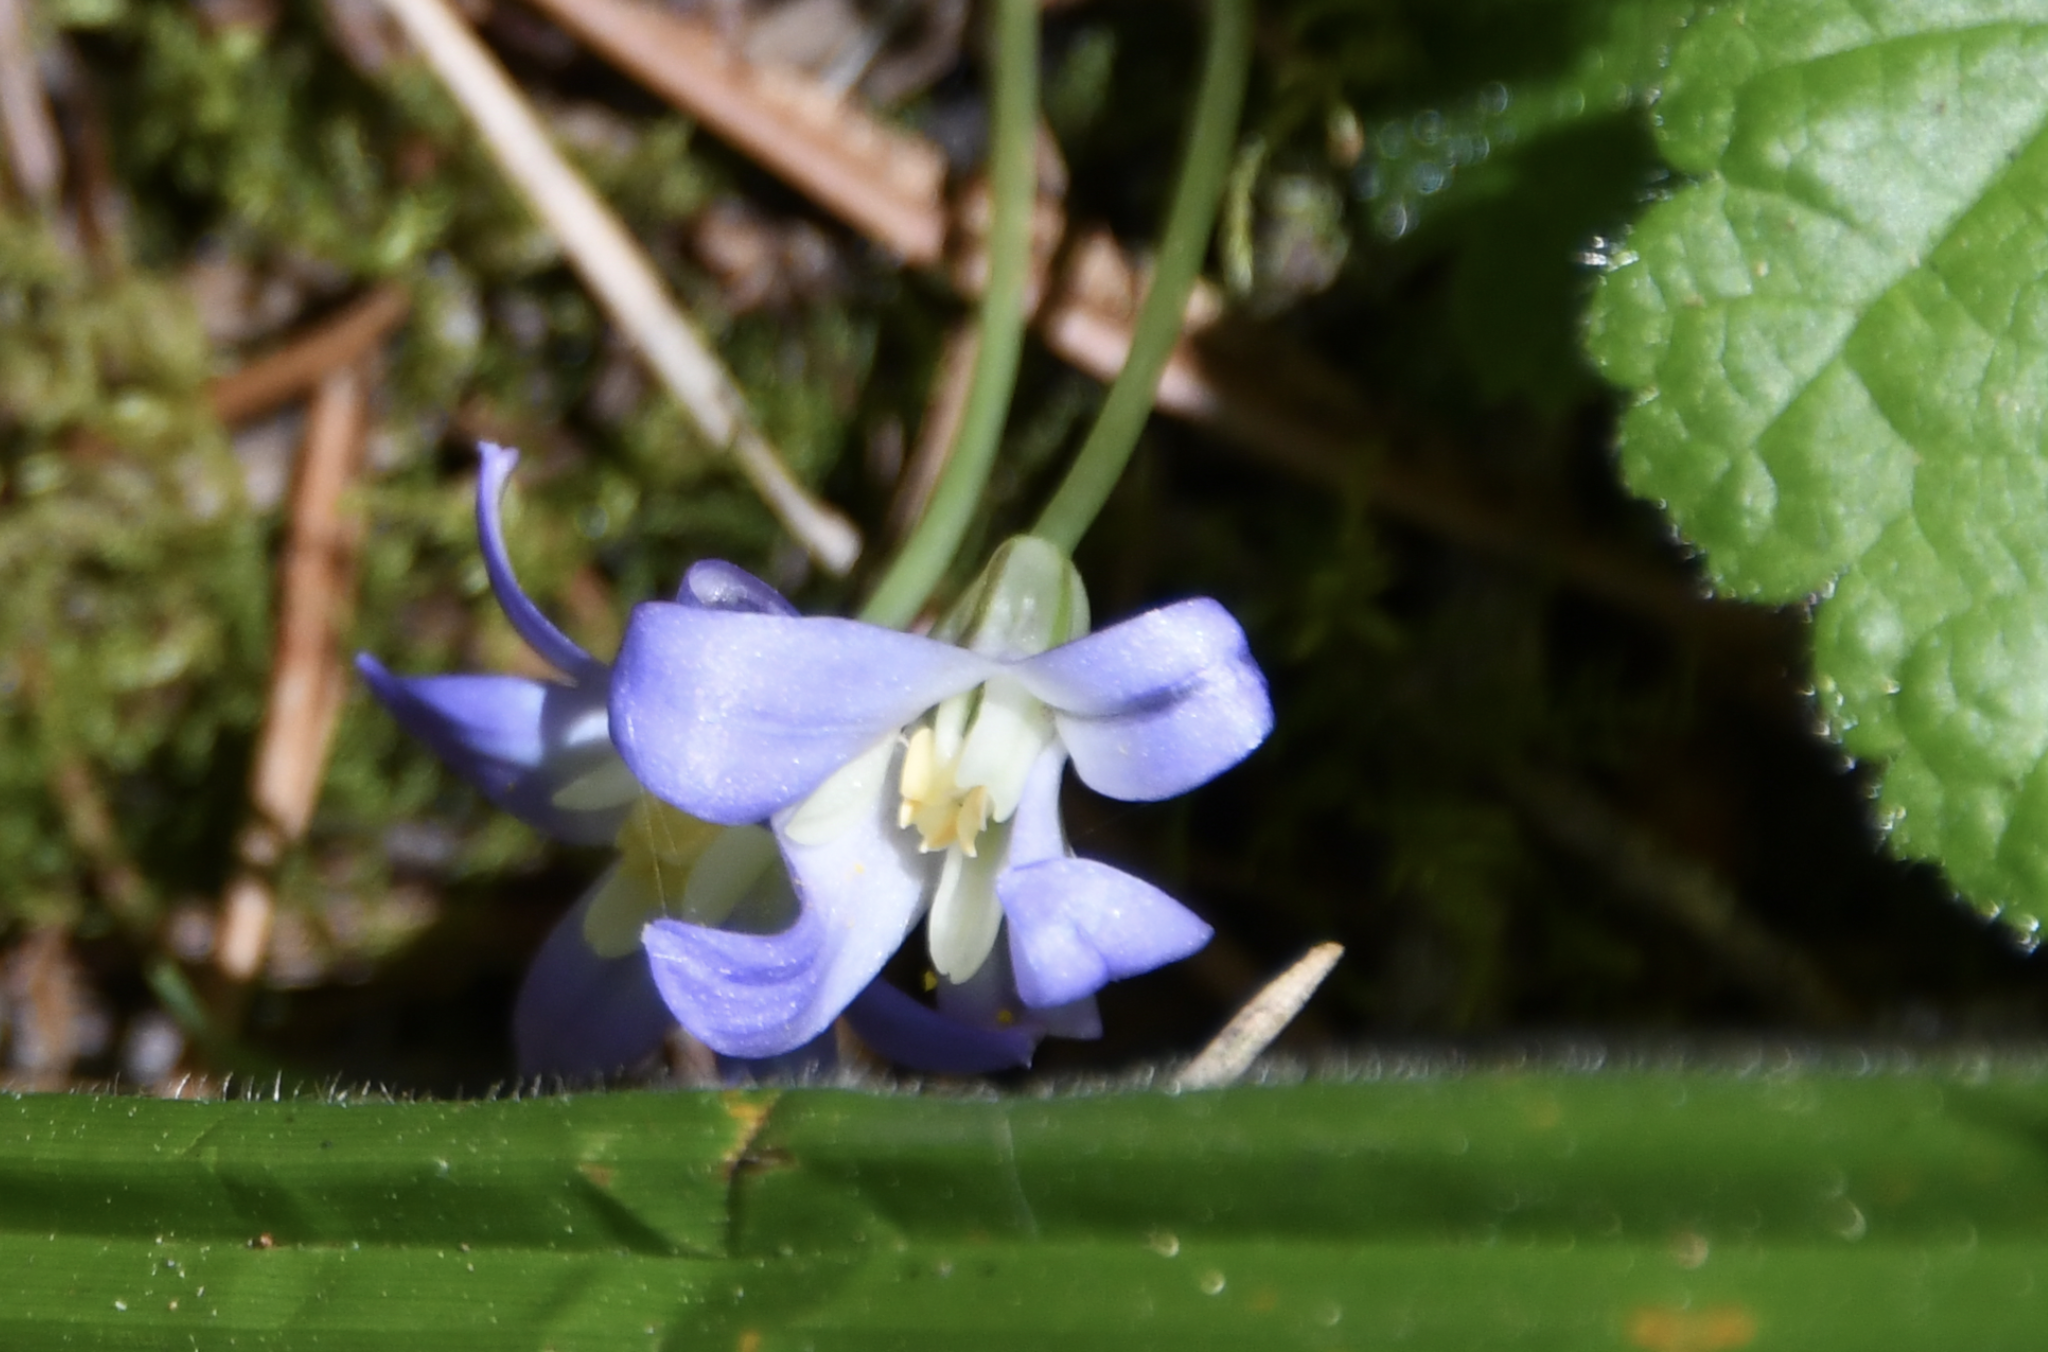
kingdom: Plantae
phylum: Tracheophyta
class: Liliopsida
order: Asparagales
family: Asparagaceae
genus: Brodiaea
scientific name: Brodiaea terrestris
